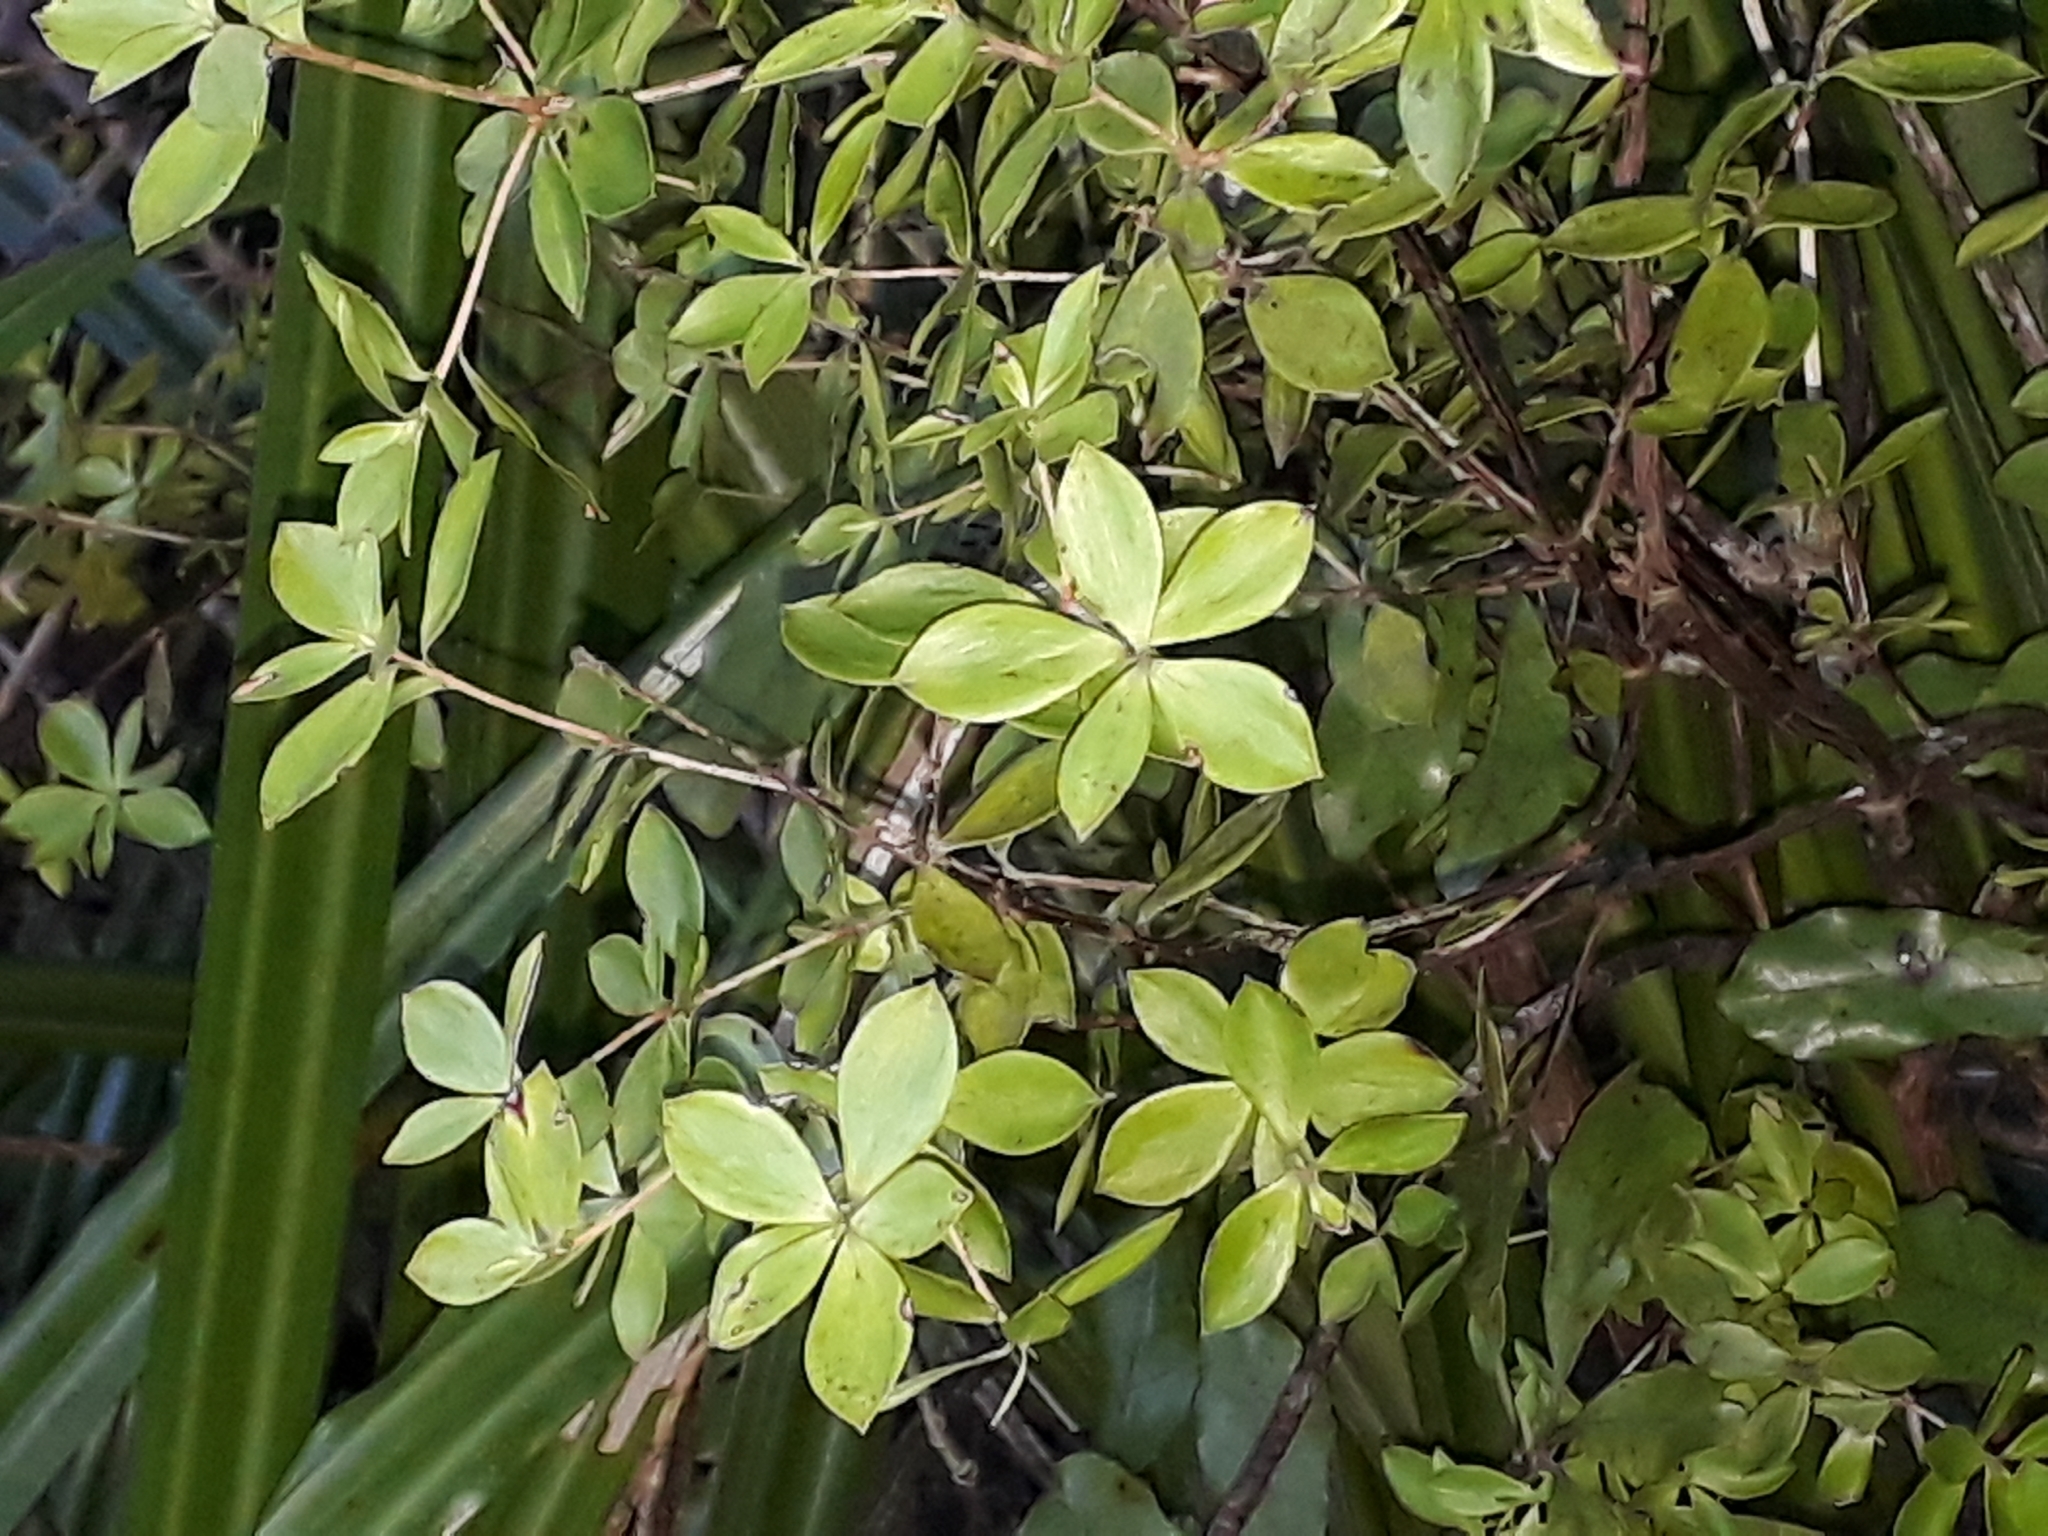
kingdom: Plantae
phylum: Tracheophyta
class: Magnoliopsida
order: Ericales
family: Ericaceae
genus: Archeria
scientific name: Archeria racemosa
